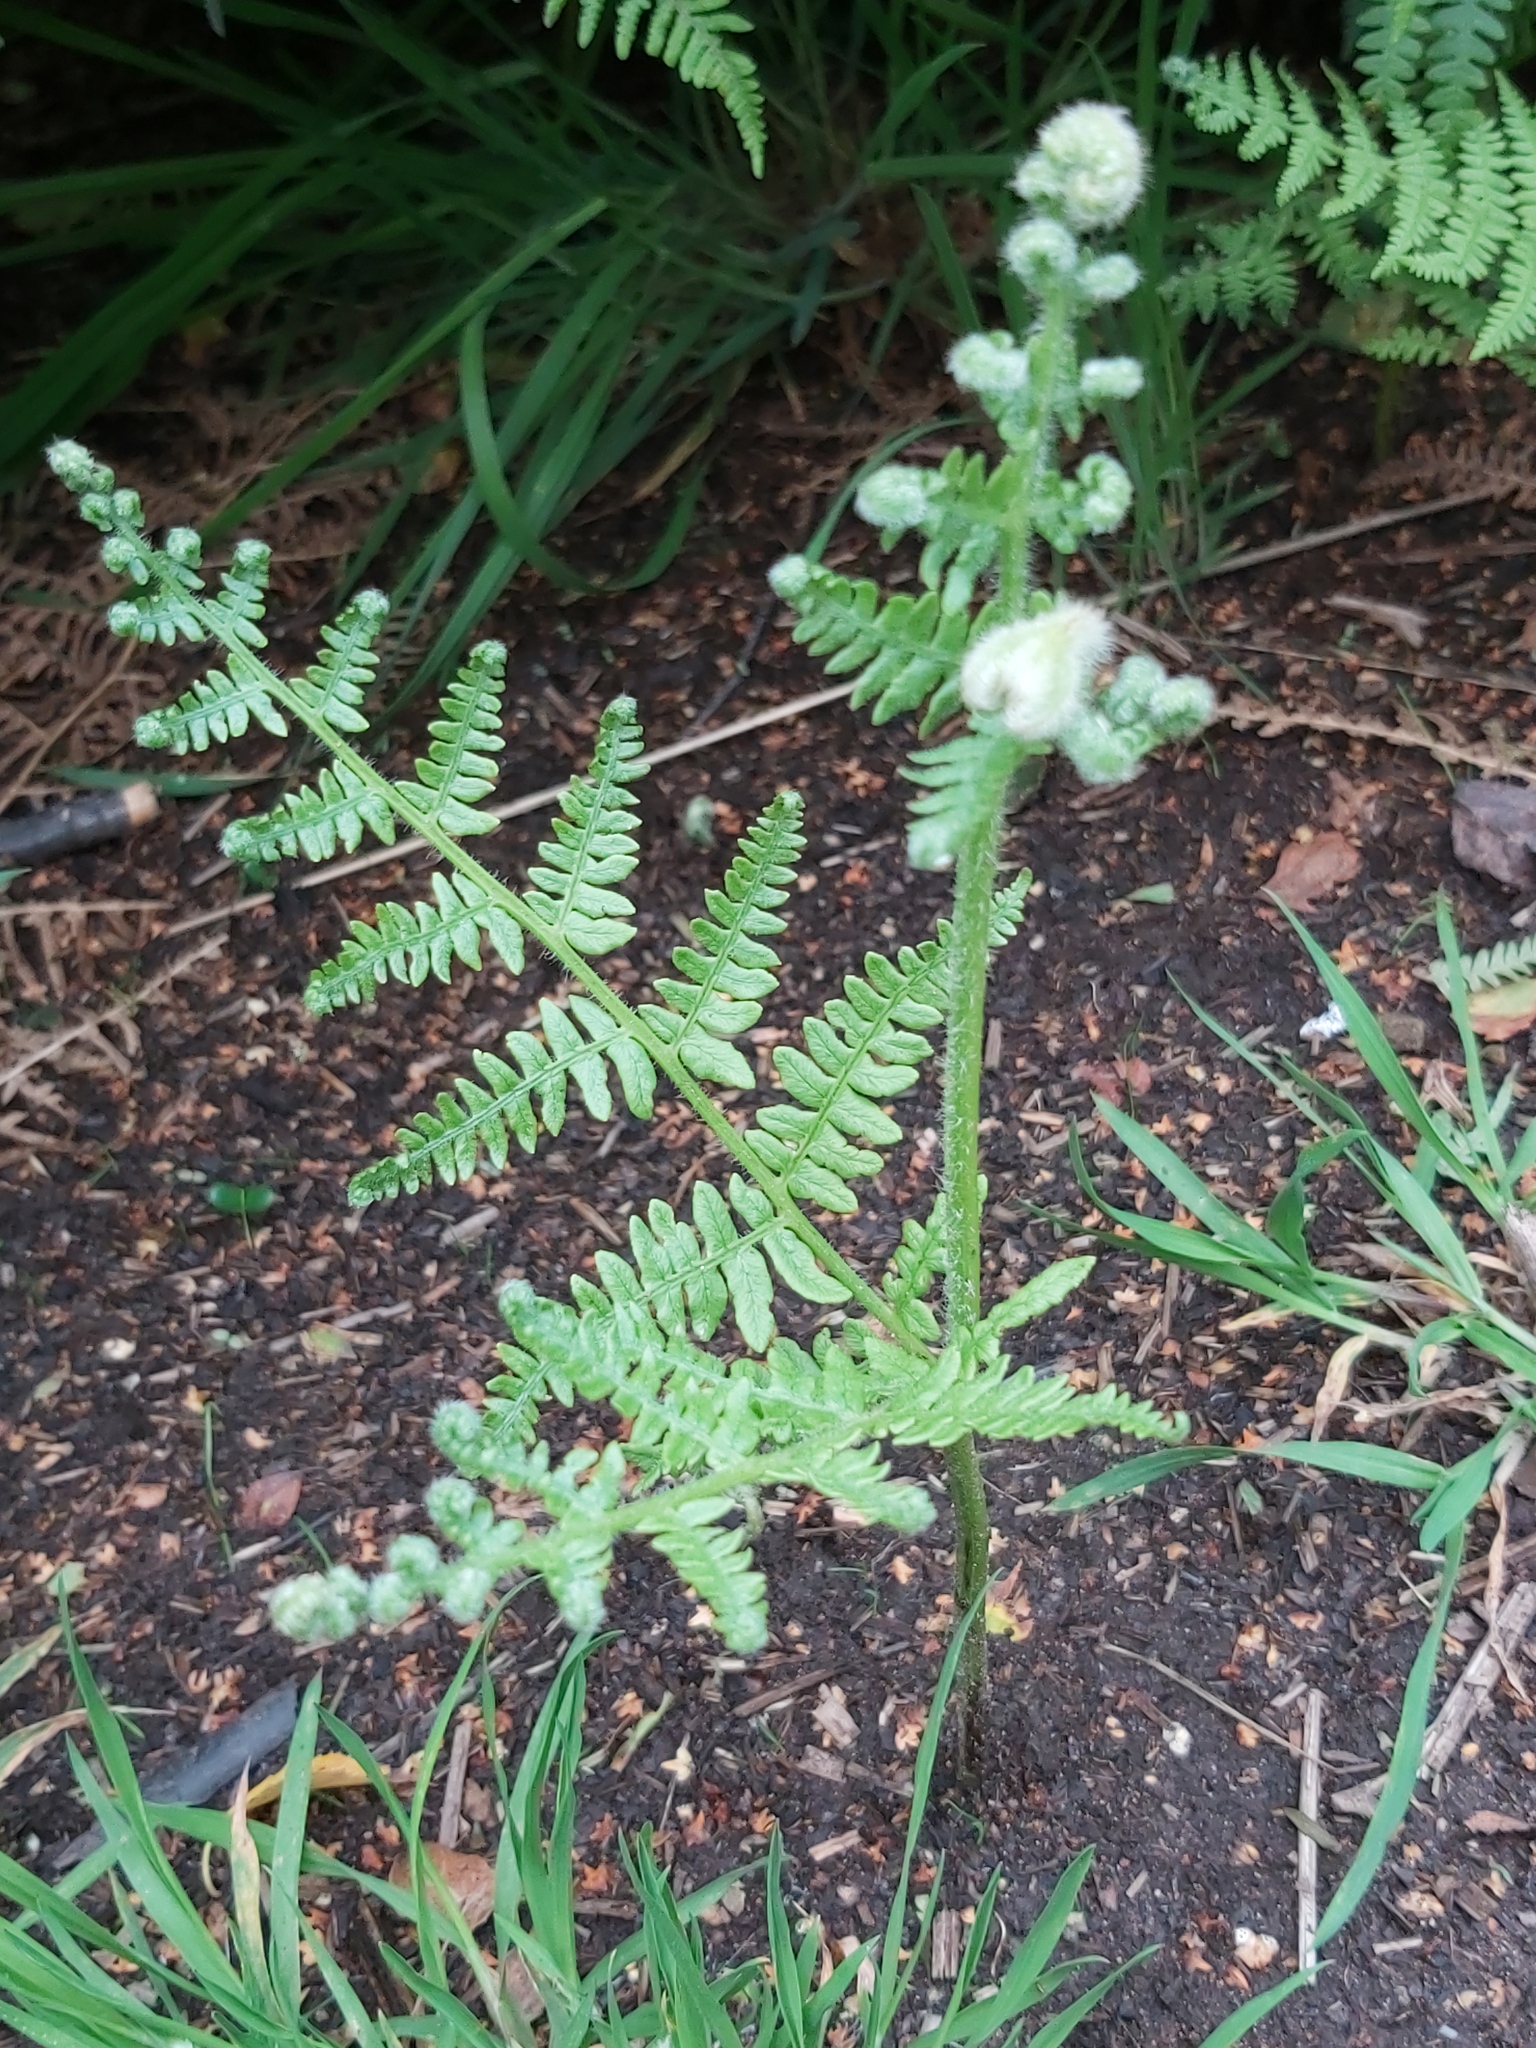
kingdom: Plantae
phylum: Tracheophyta
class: Polypodiopsida
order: Polypodiales
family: Dennstaedtiaceae
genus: Pteridium
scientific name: Pteridium aquilinum
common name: Bracken
